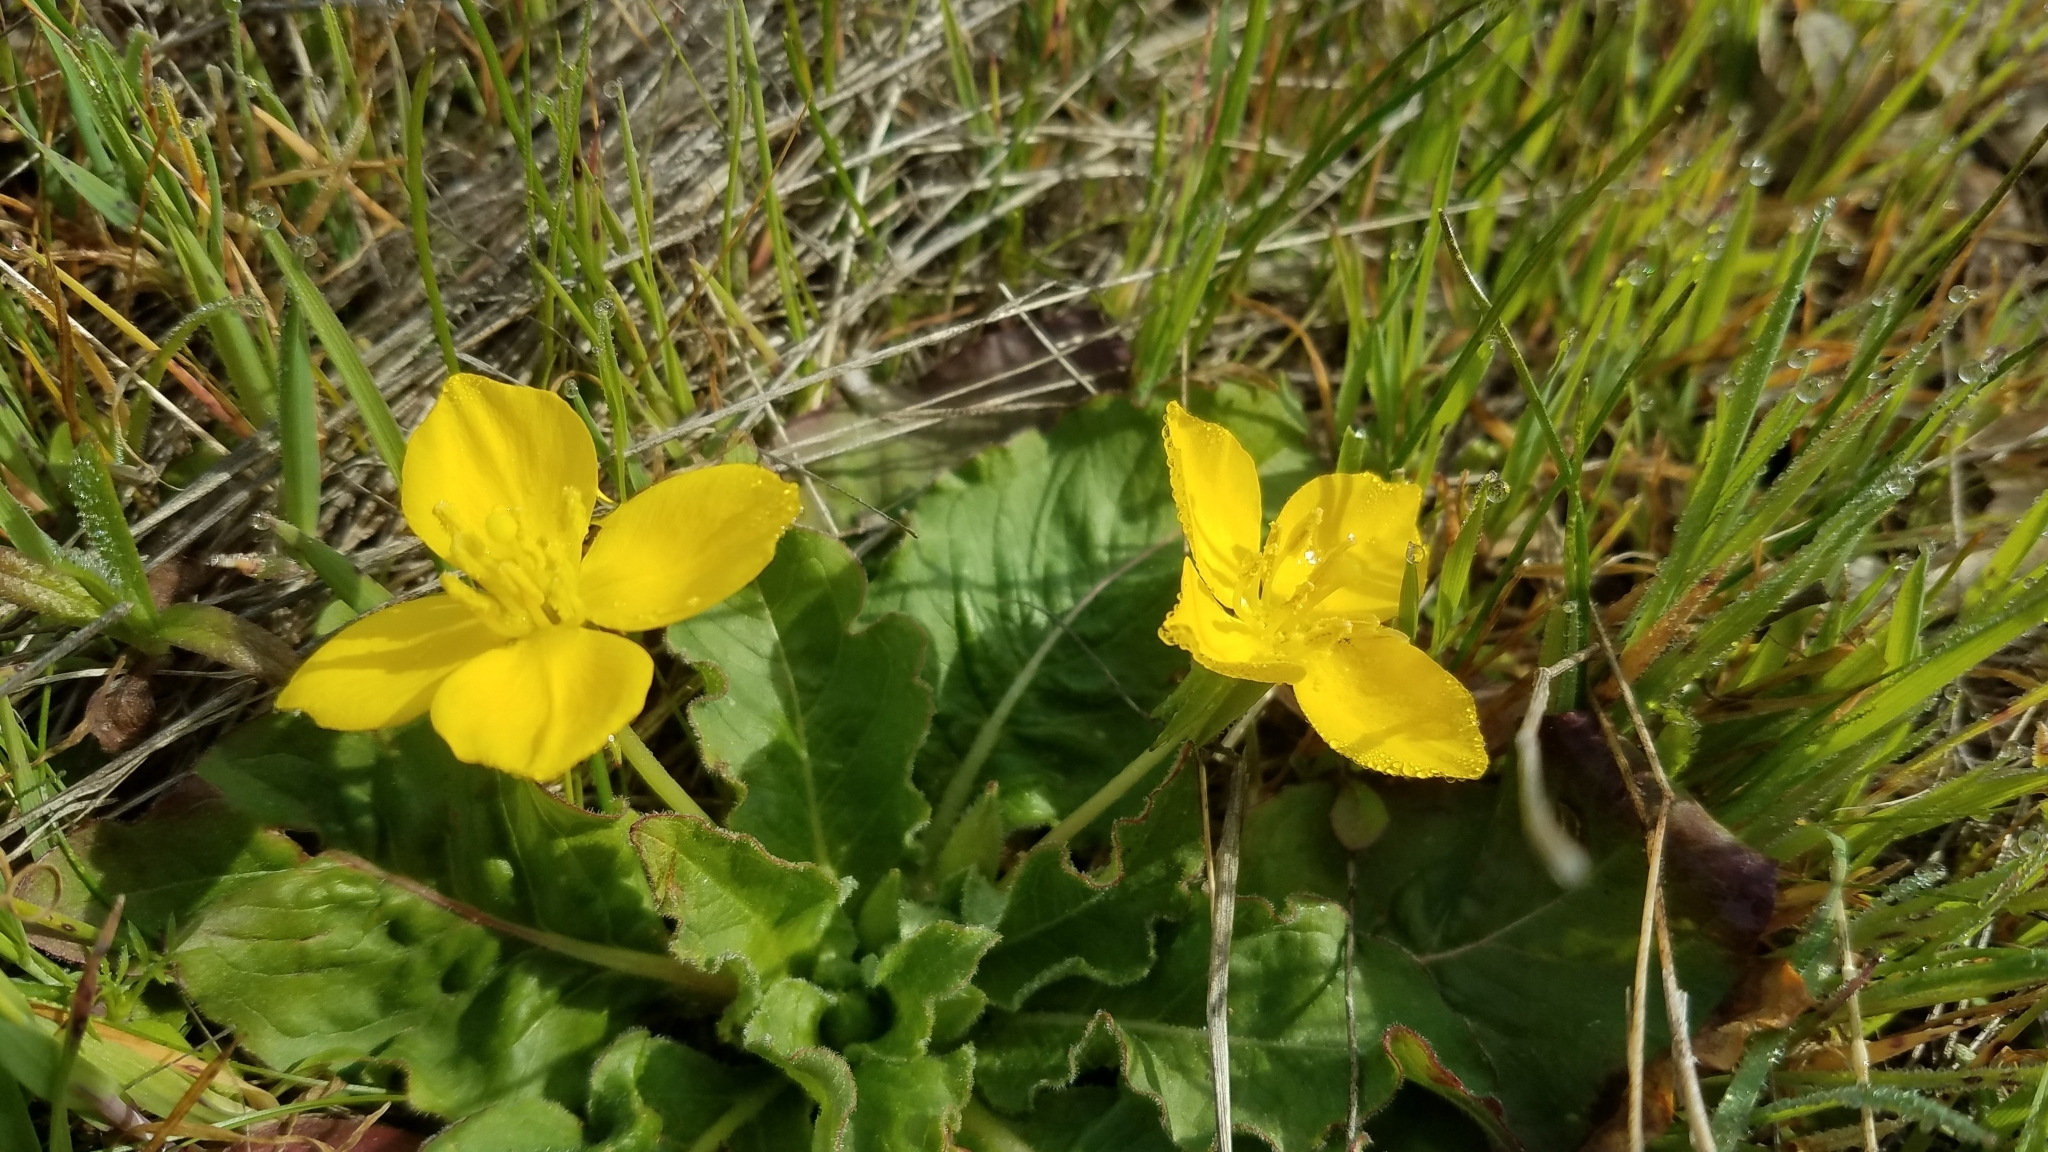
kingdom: Plantae
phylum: Tracheophyta
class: Magnoliopsida
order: Myrtales
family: Onagraceae
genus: Taraxia
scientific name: Taraxia ovata
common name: Goldeneggs
